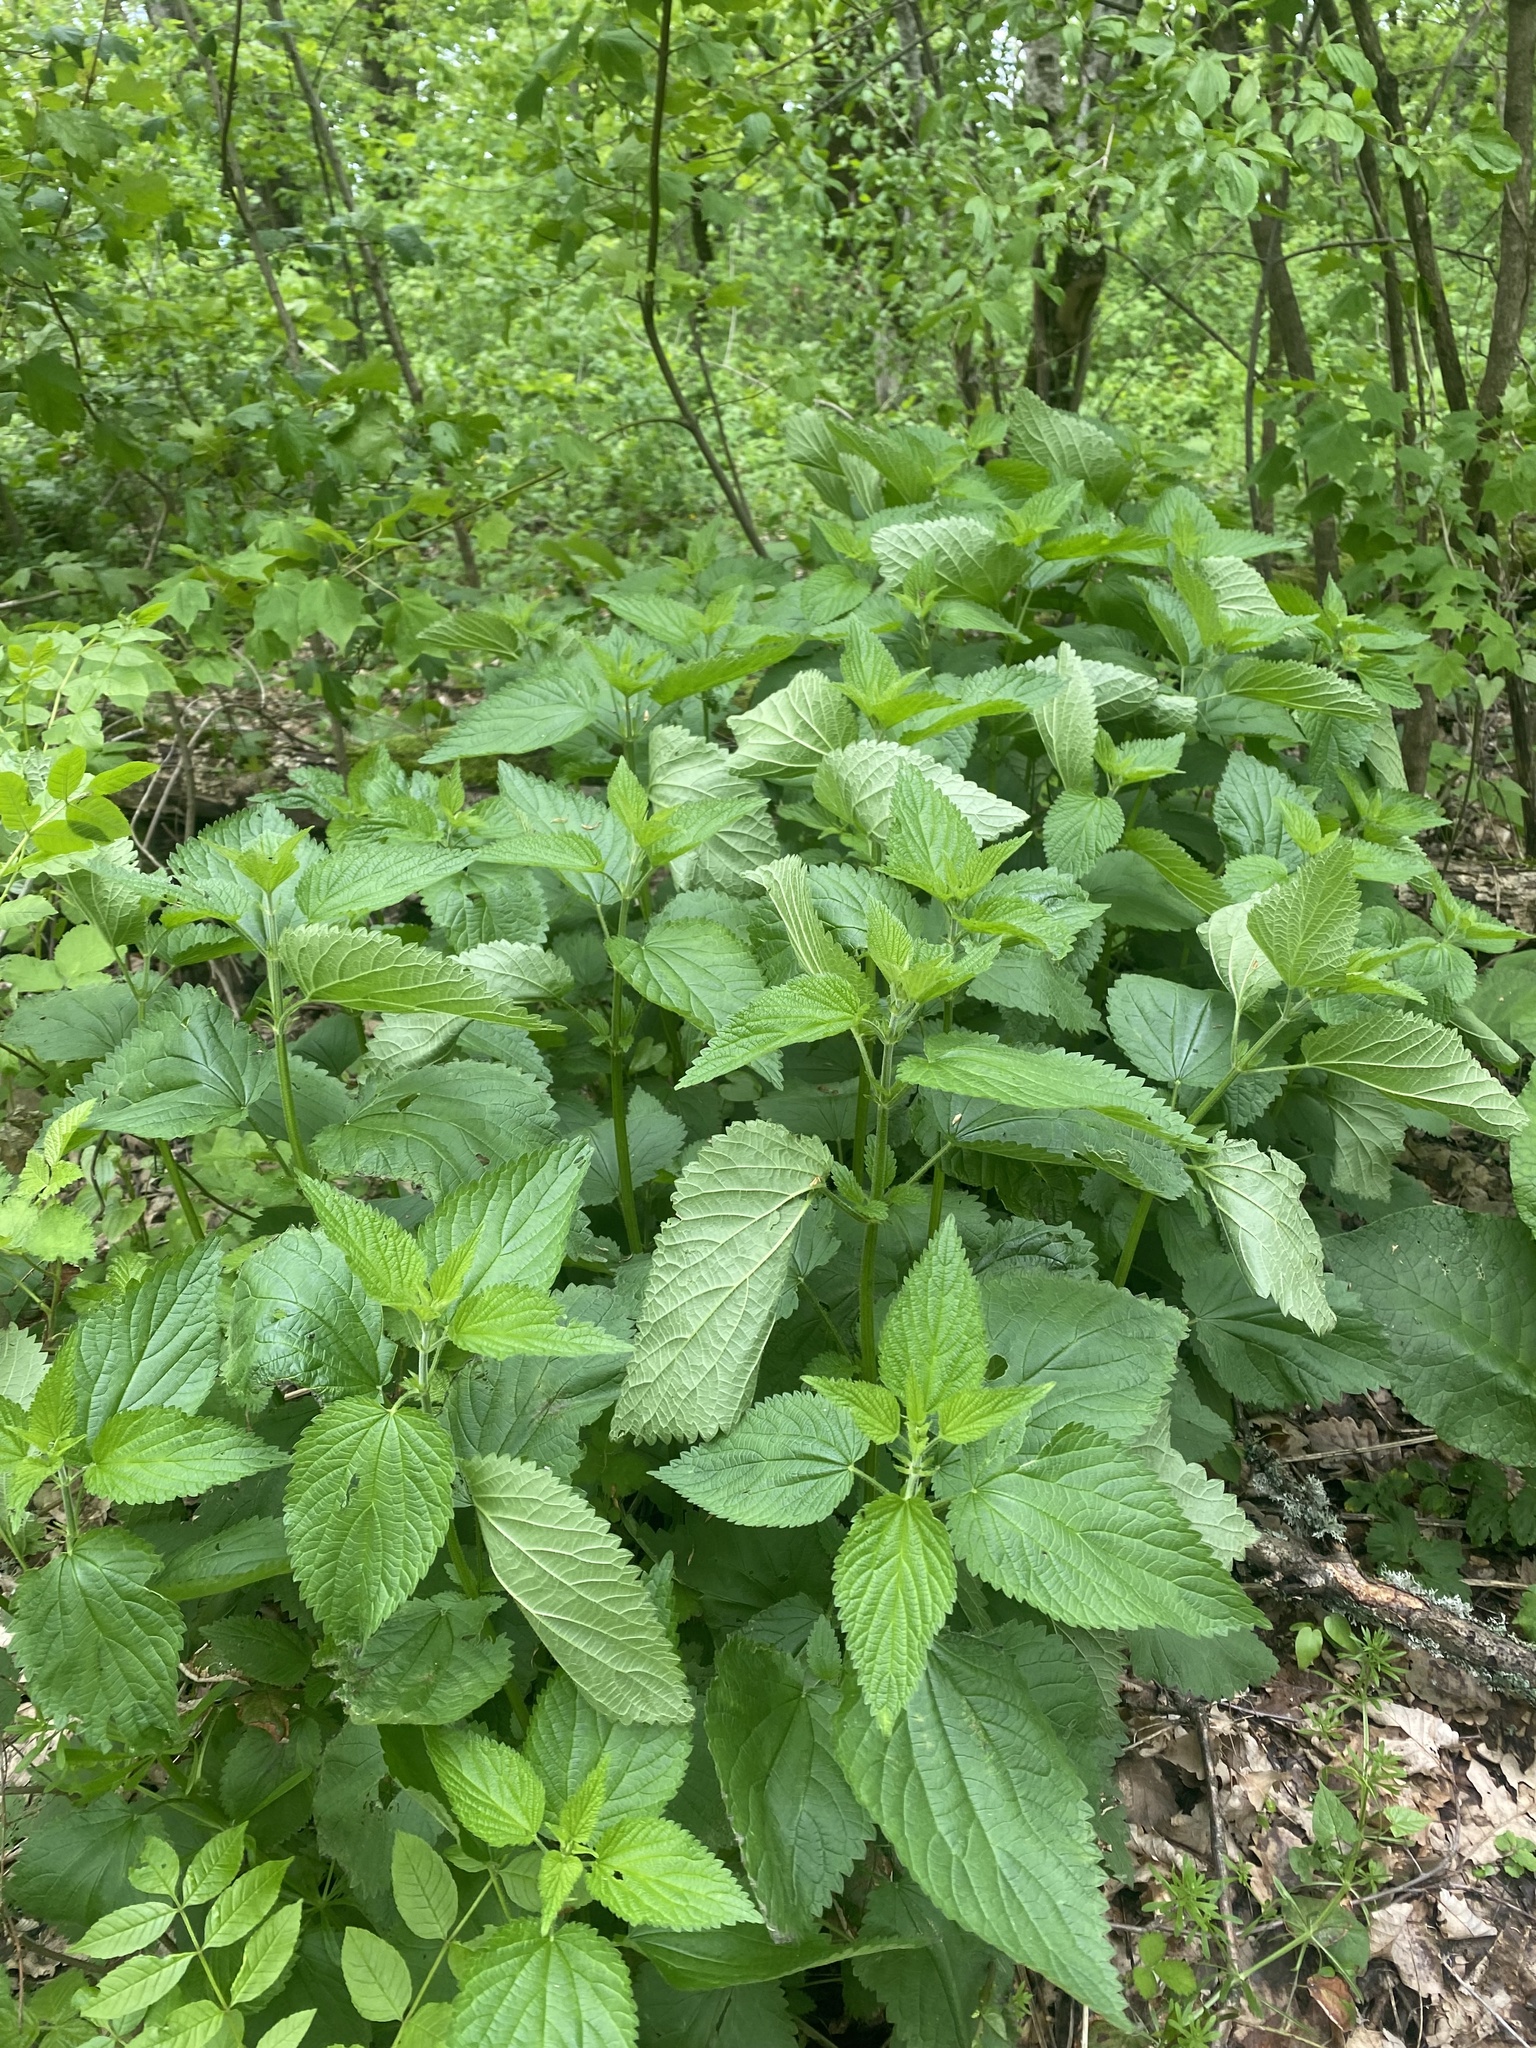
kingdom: Plantae
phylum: Tracheophyta
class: Magnoliopsida
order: Rosales
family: Urticaceae
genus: Urtica
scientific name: Urtica dioica
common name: Common nettle
